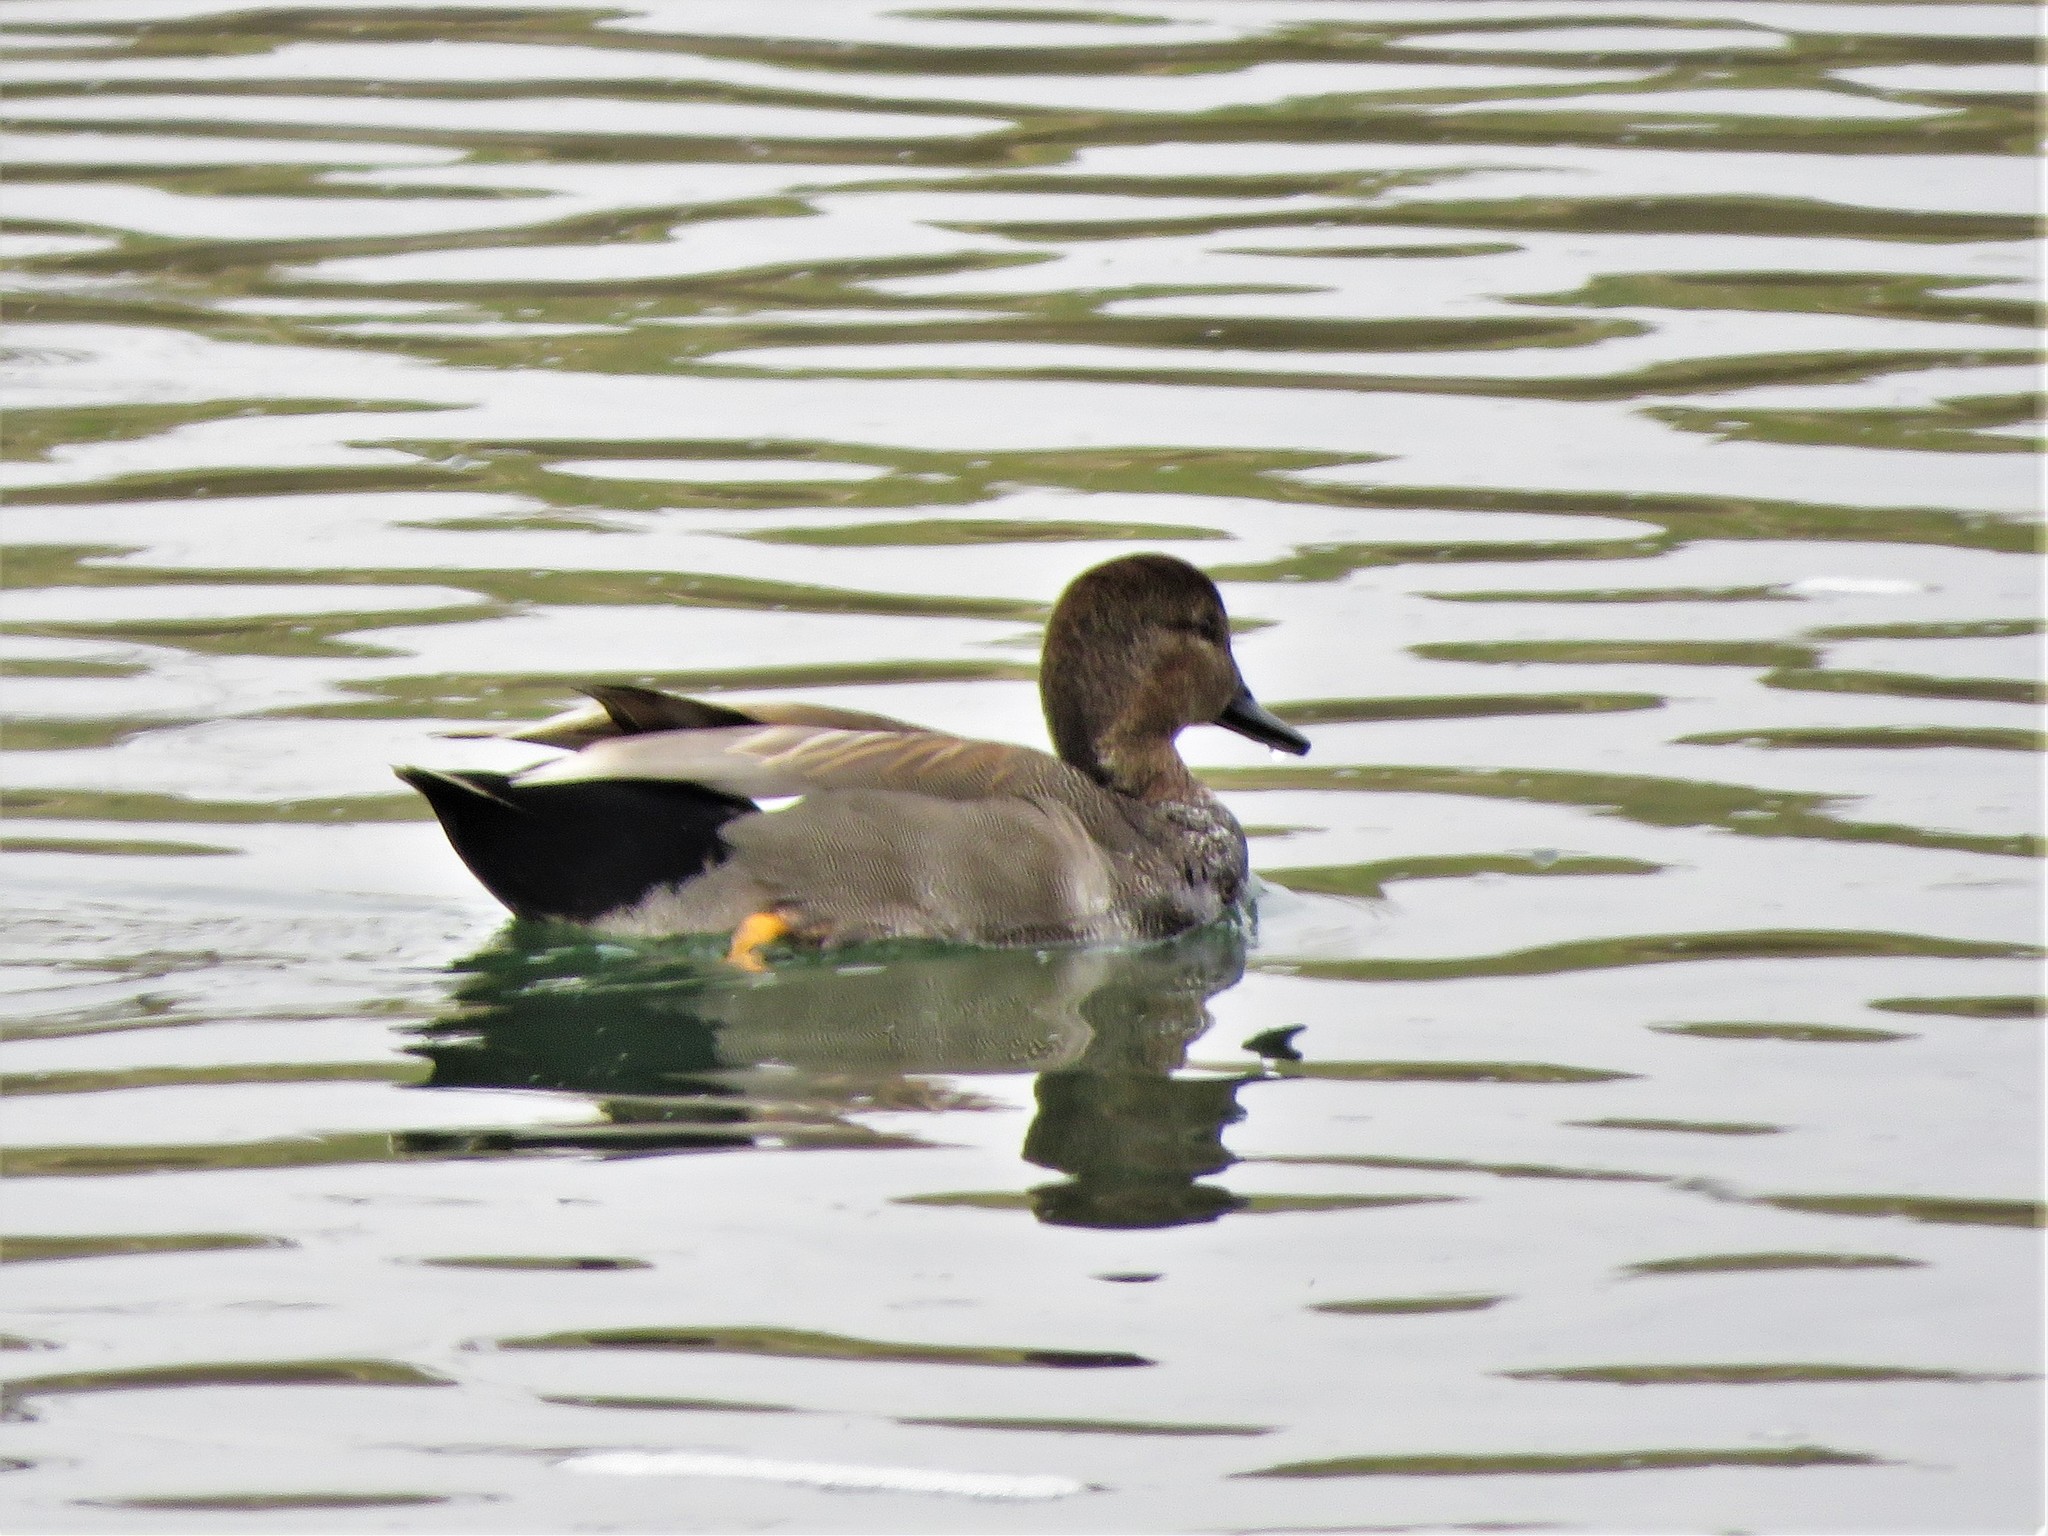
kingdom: Animalia
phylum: Chordata
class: Aves
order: Anseriformes
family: Anatidae
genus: Mareca
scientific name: Mareca strepera
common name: Gadwall
